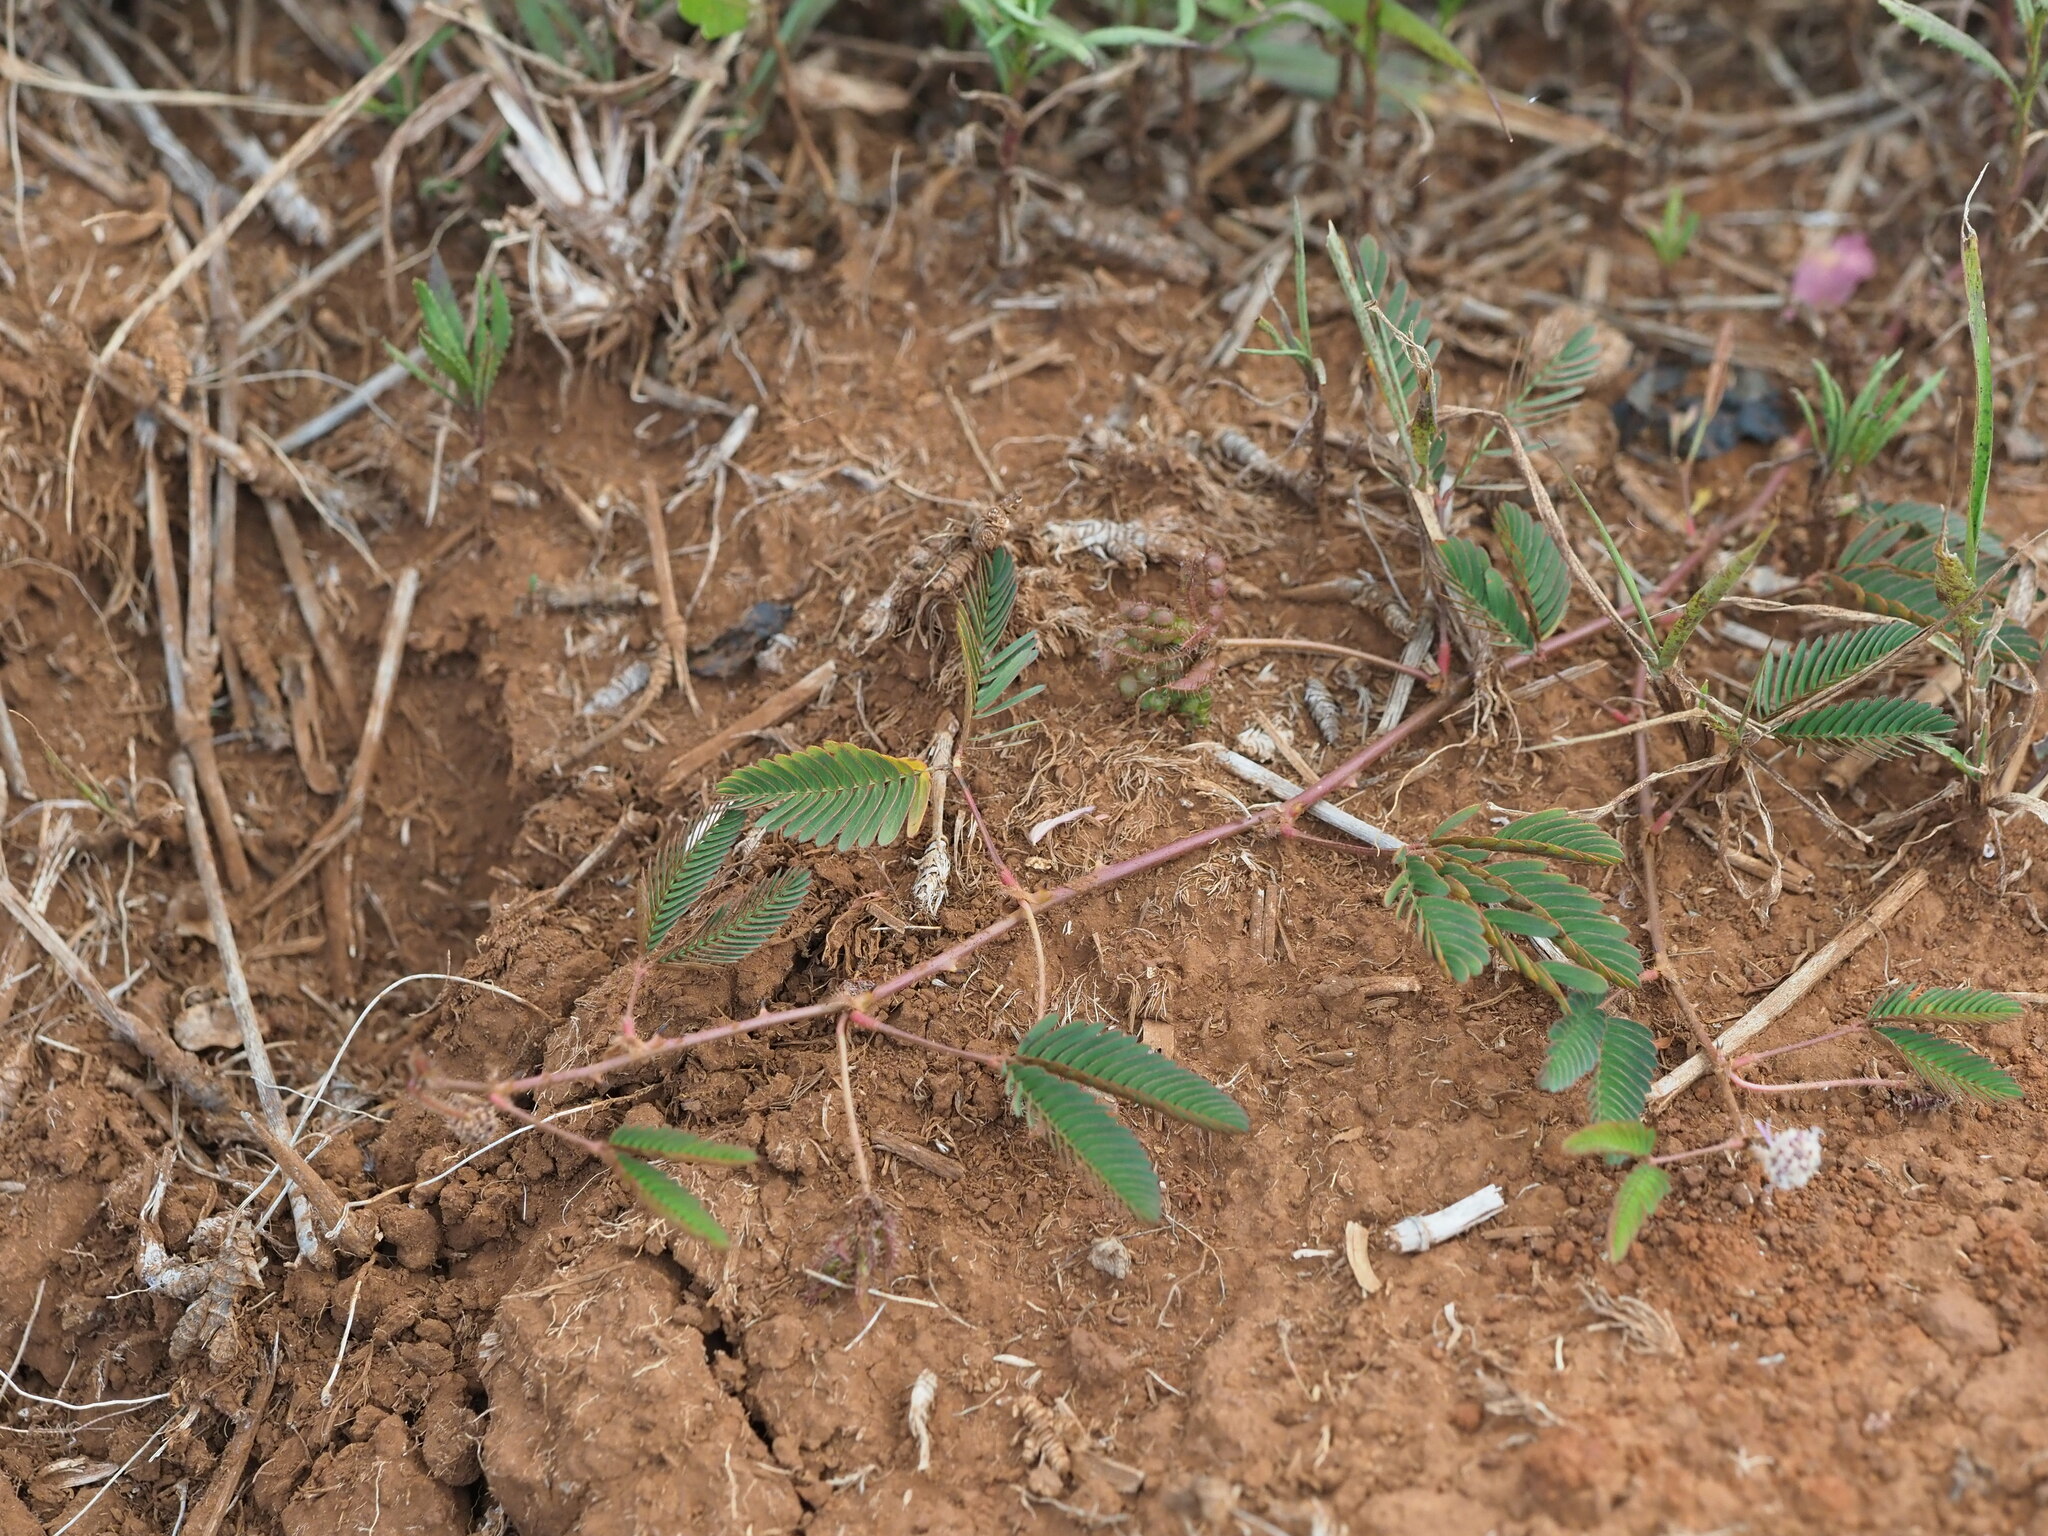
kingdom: Plantae
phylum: Tracheophyta
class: Magnoliopsida
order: Fabales
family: Fabaceae
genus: Mimosa
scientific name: Mimosa pudica
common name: Sensitive plant
